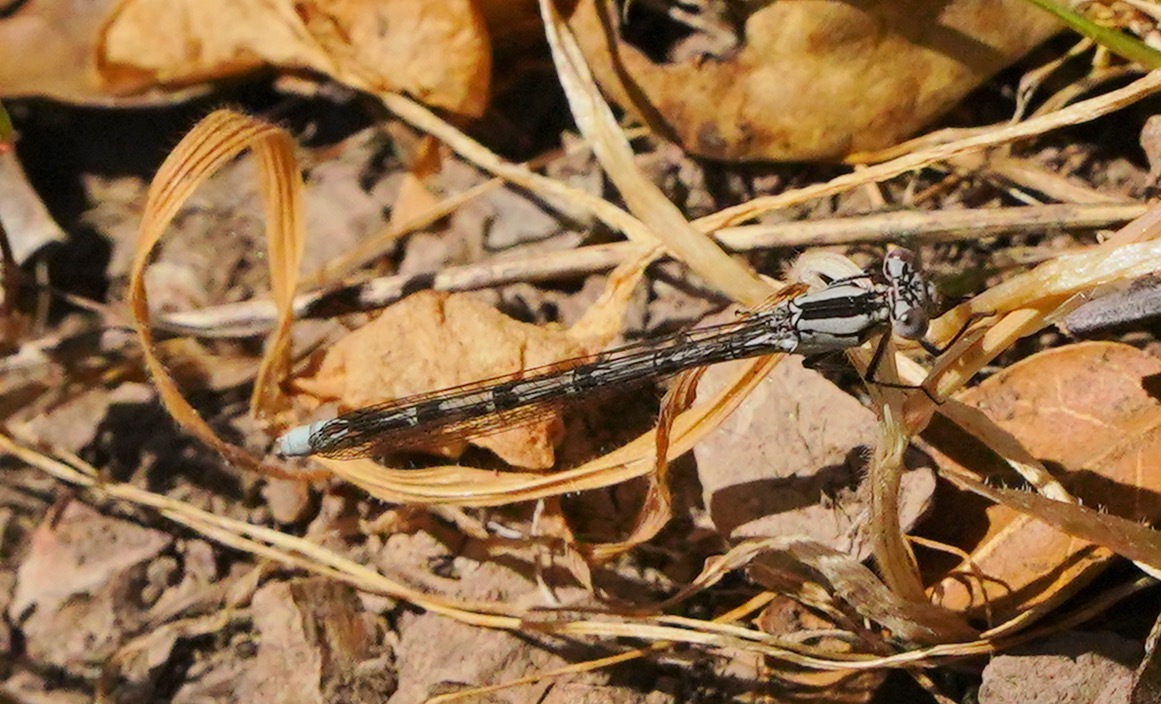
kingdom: Animalia
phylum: Arthropoda
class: Insecta
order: Odonata
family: Coenagrionidae
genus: Argia
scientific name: Argia vivida
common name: Vivid dancer
